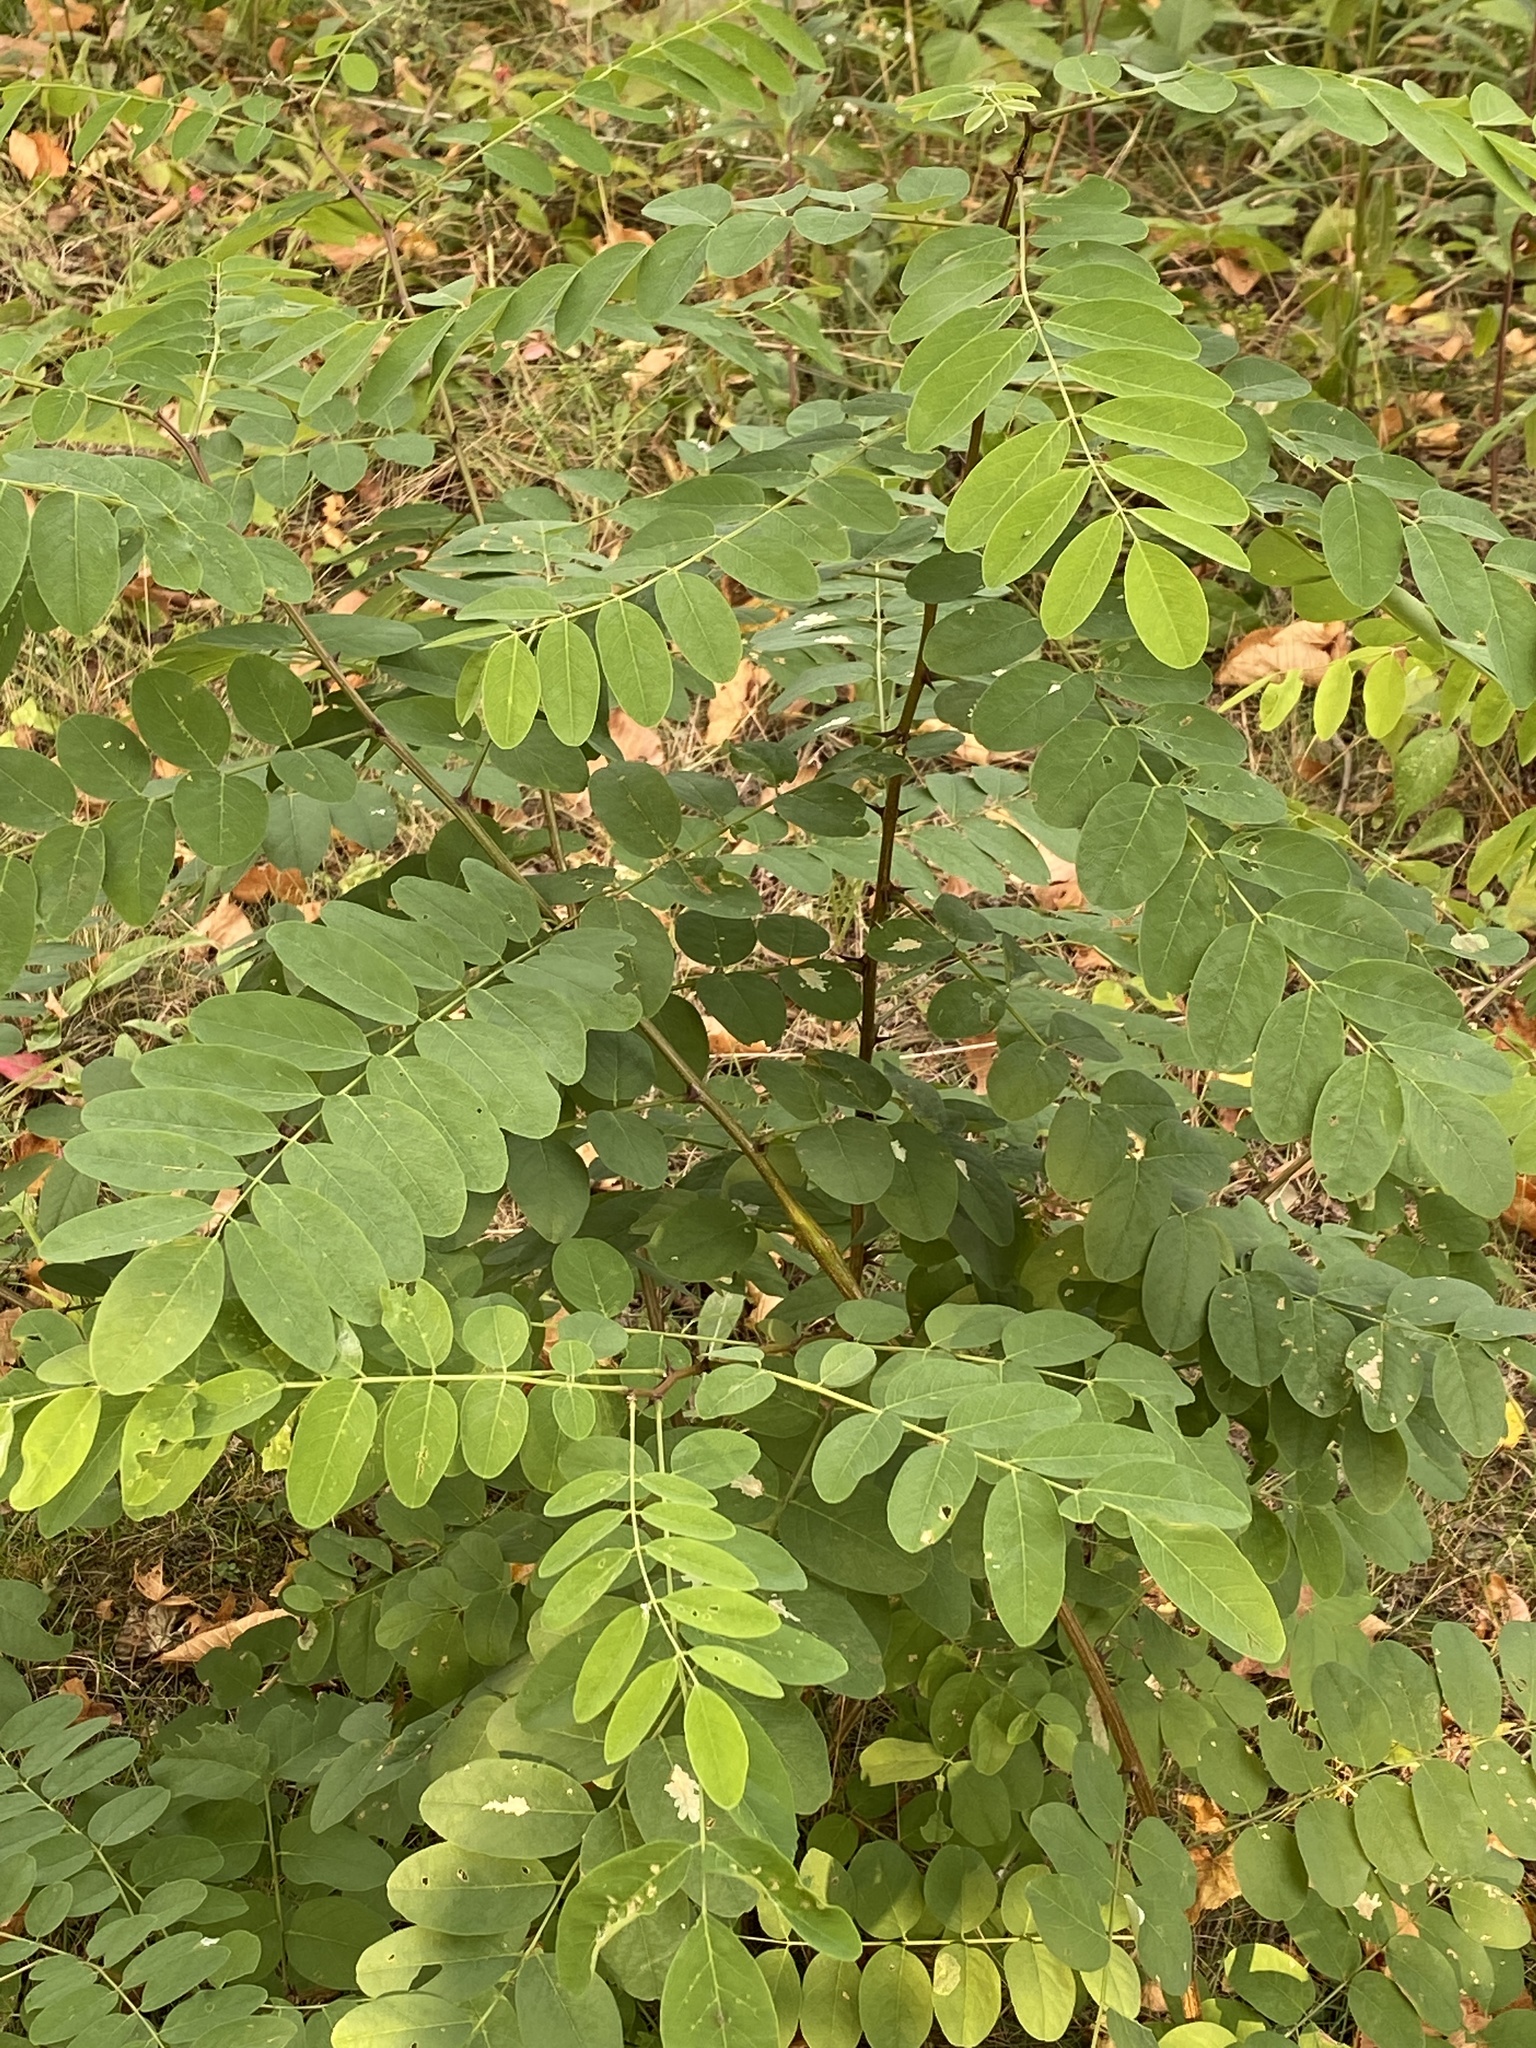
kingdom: Plantae
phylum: Tracheophyta
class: Magnoliopsida
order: Fabales
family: Fabaceae
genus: Robinia
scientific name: Robinia pseudoacacia
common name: Black locust
